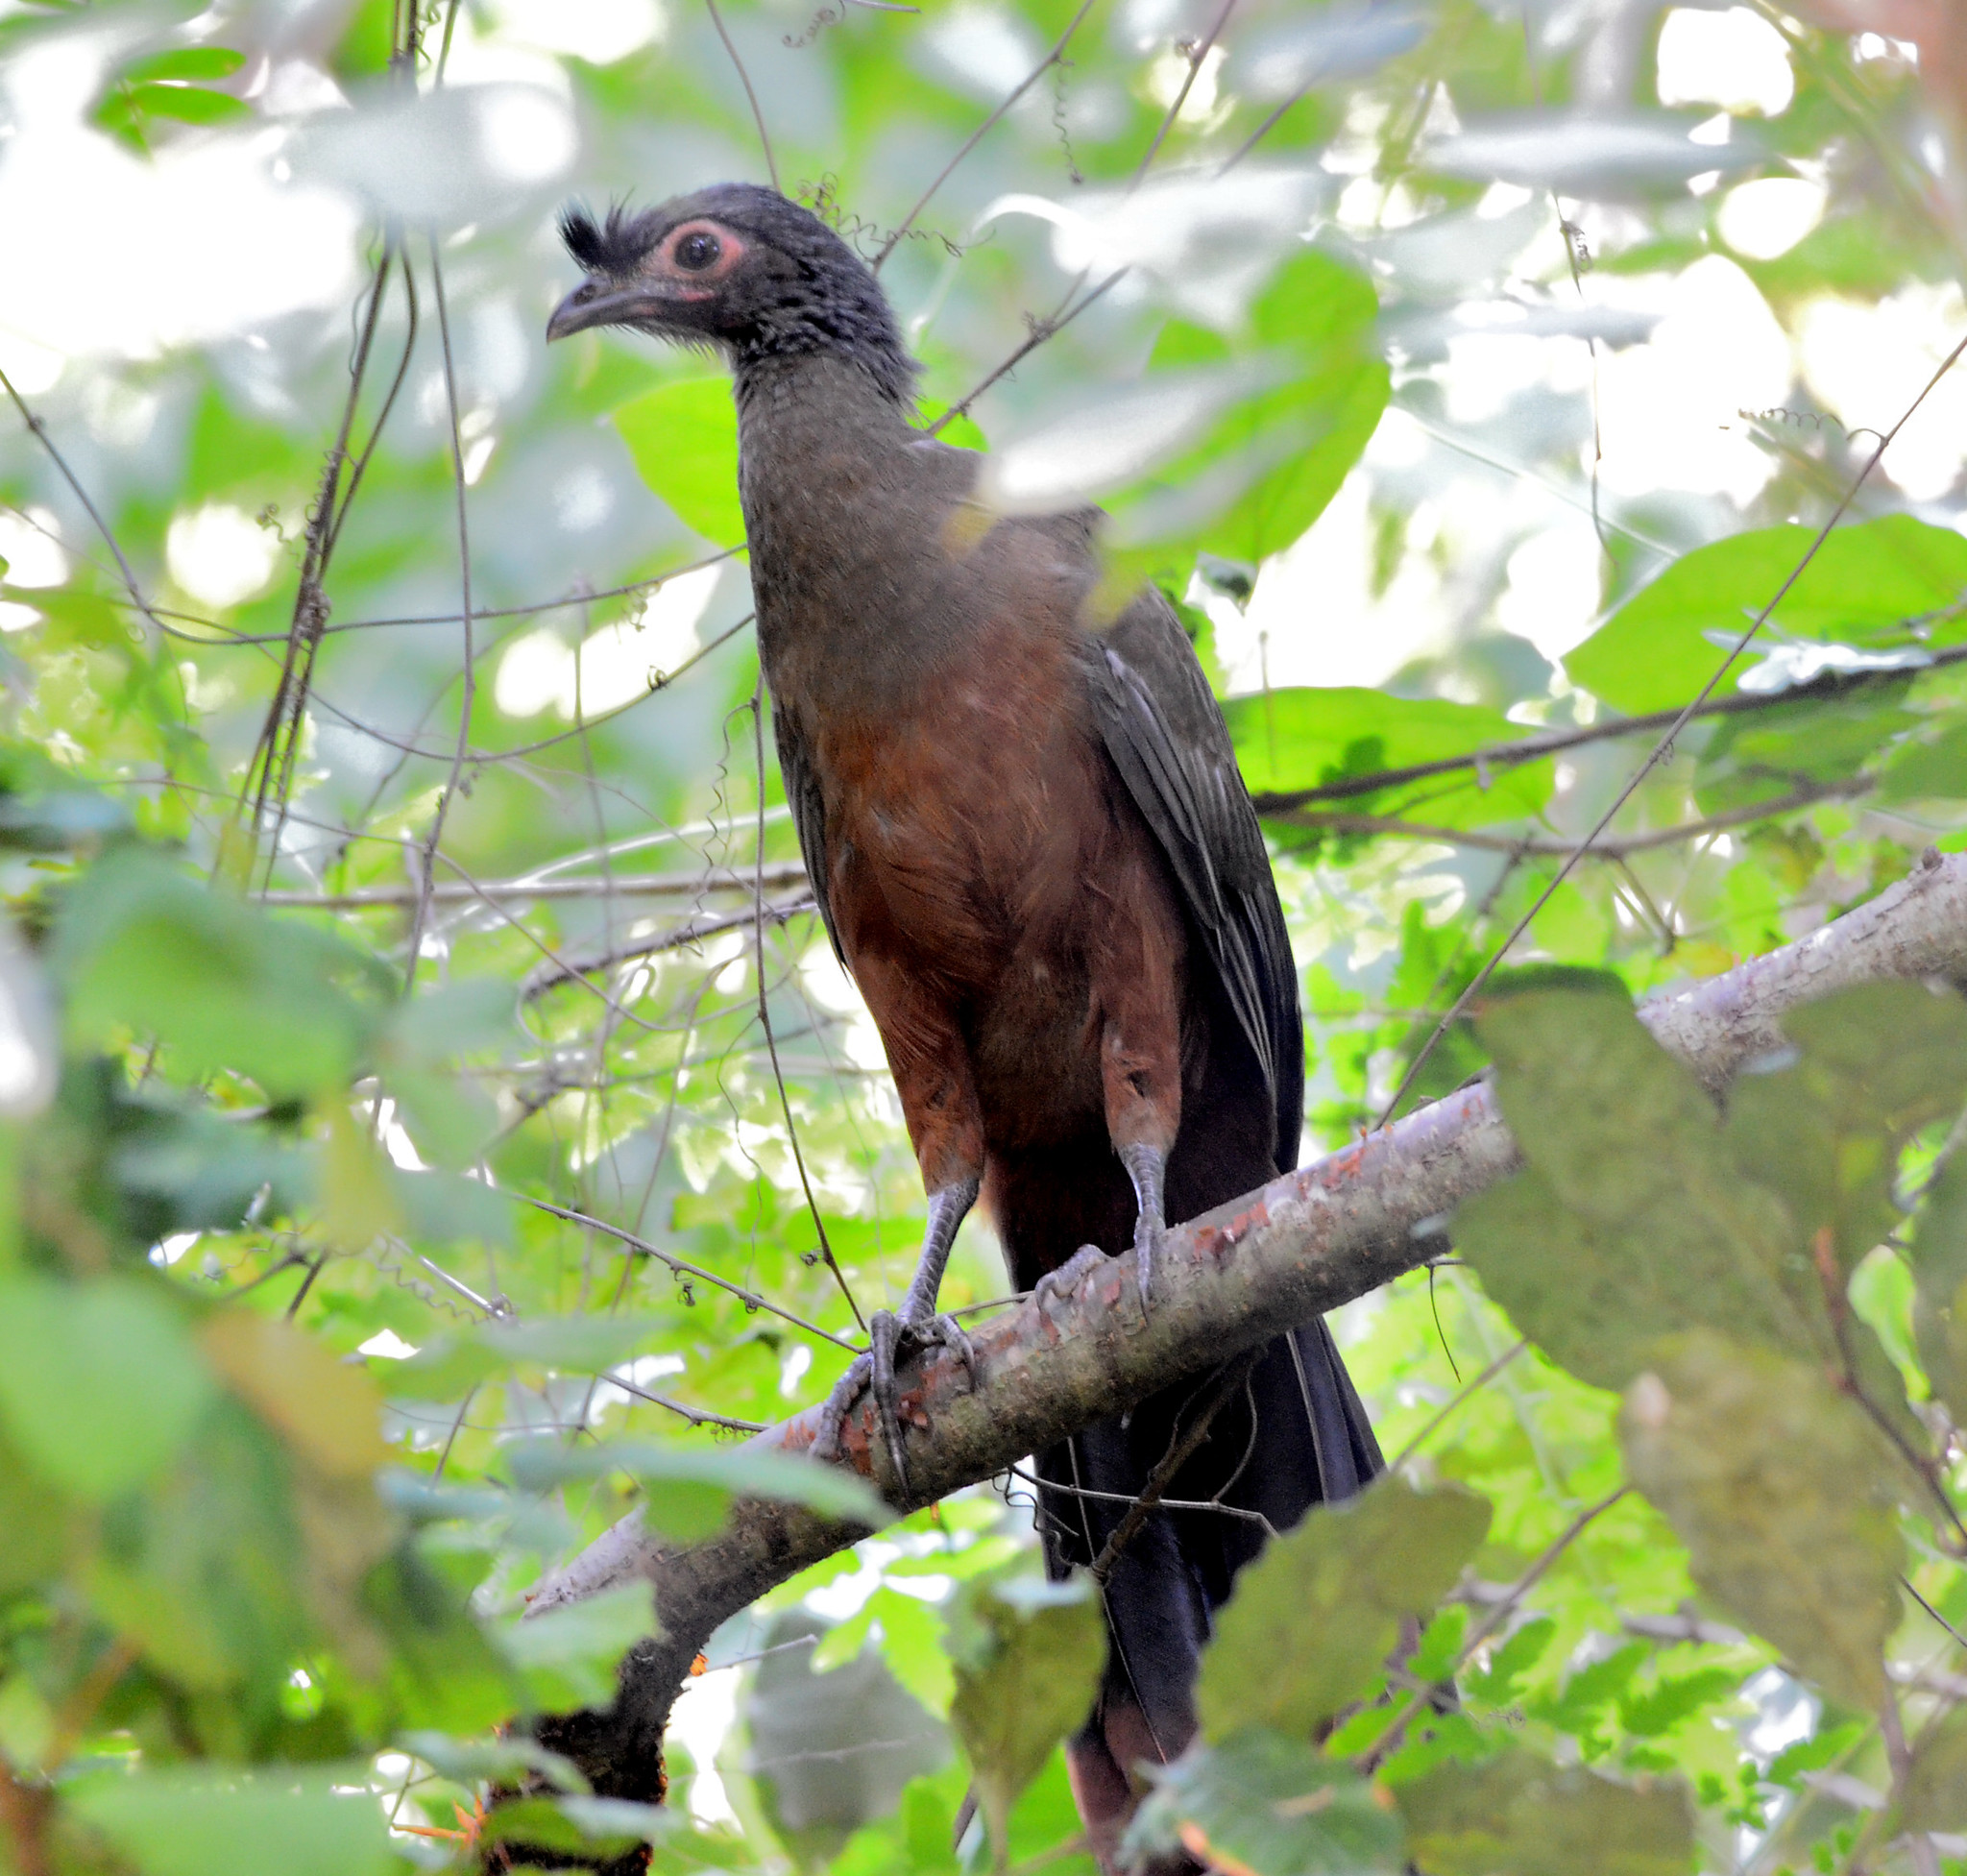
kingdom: Animalia
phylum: Chordata
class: Aves
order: Galliformes
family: Cracidae
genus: Ortalis
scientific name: Ortalis wagleri
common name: Rufous-bellied chachalaca
